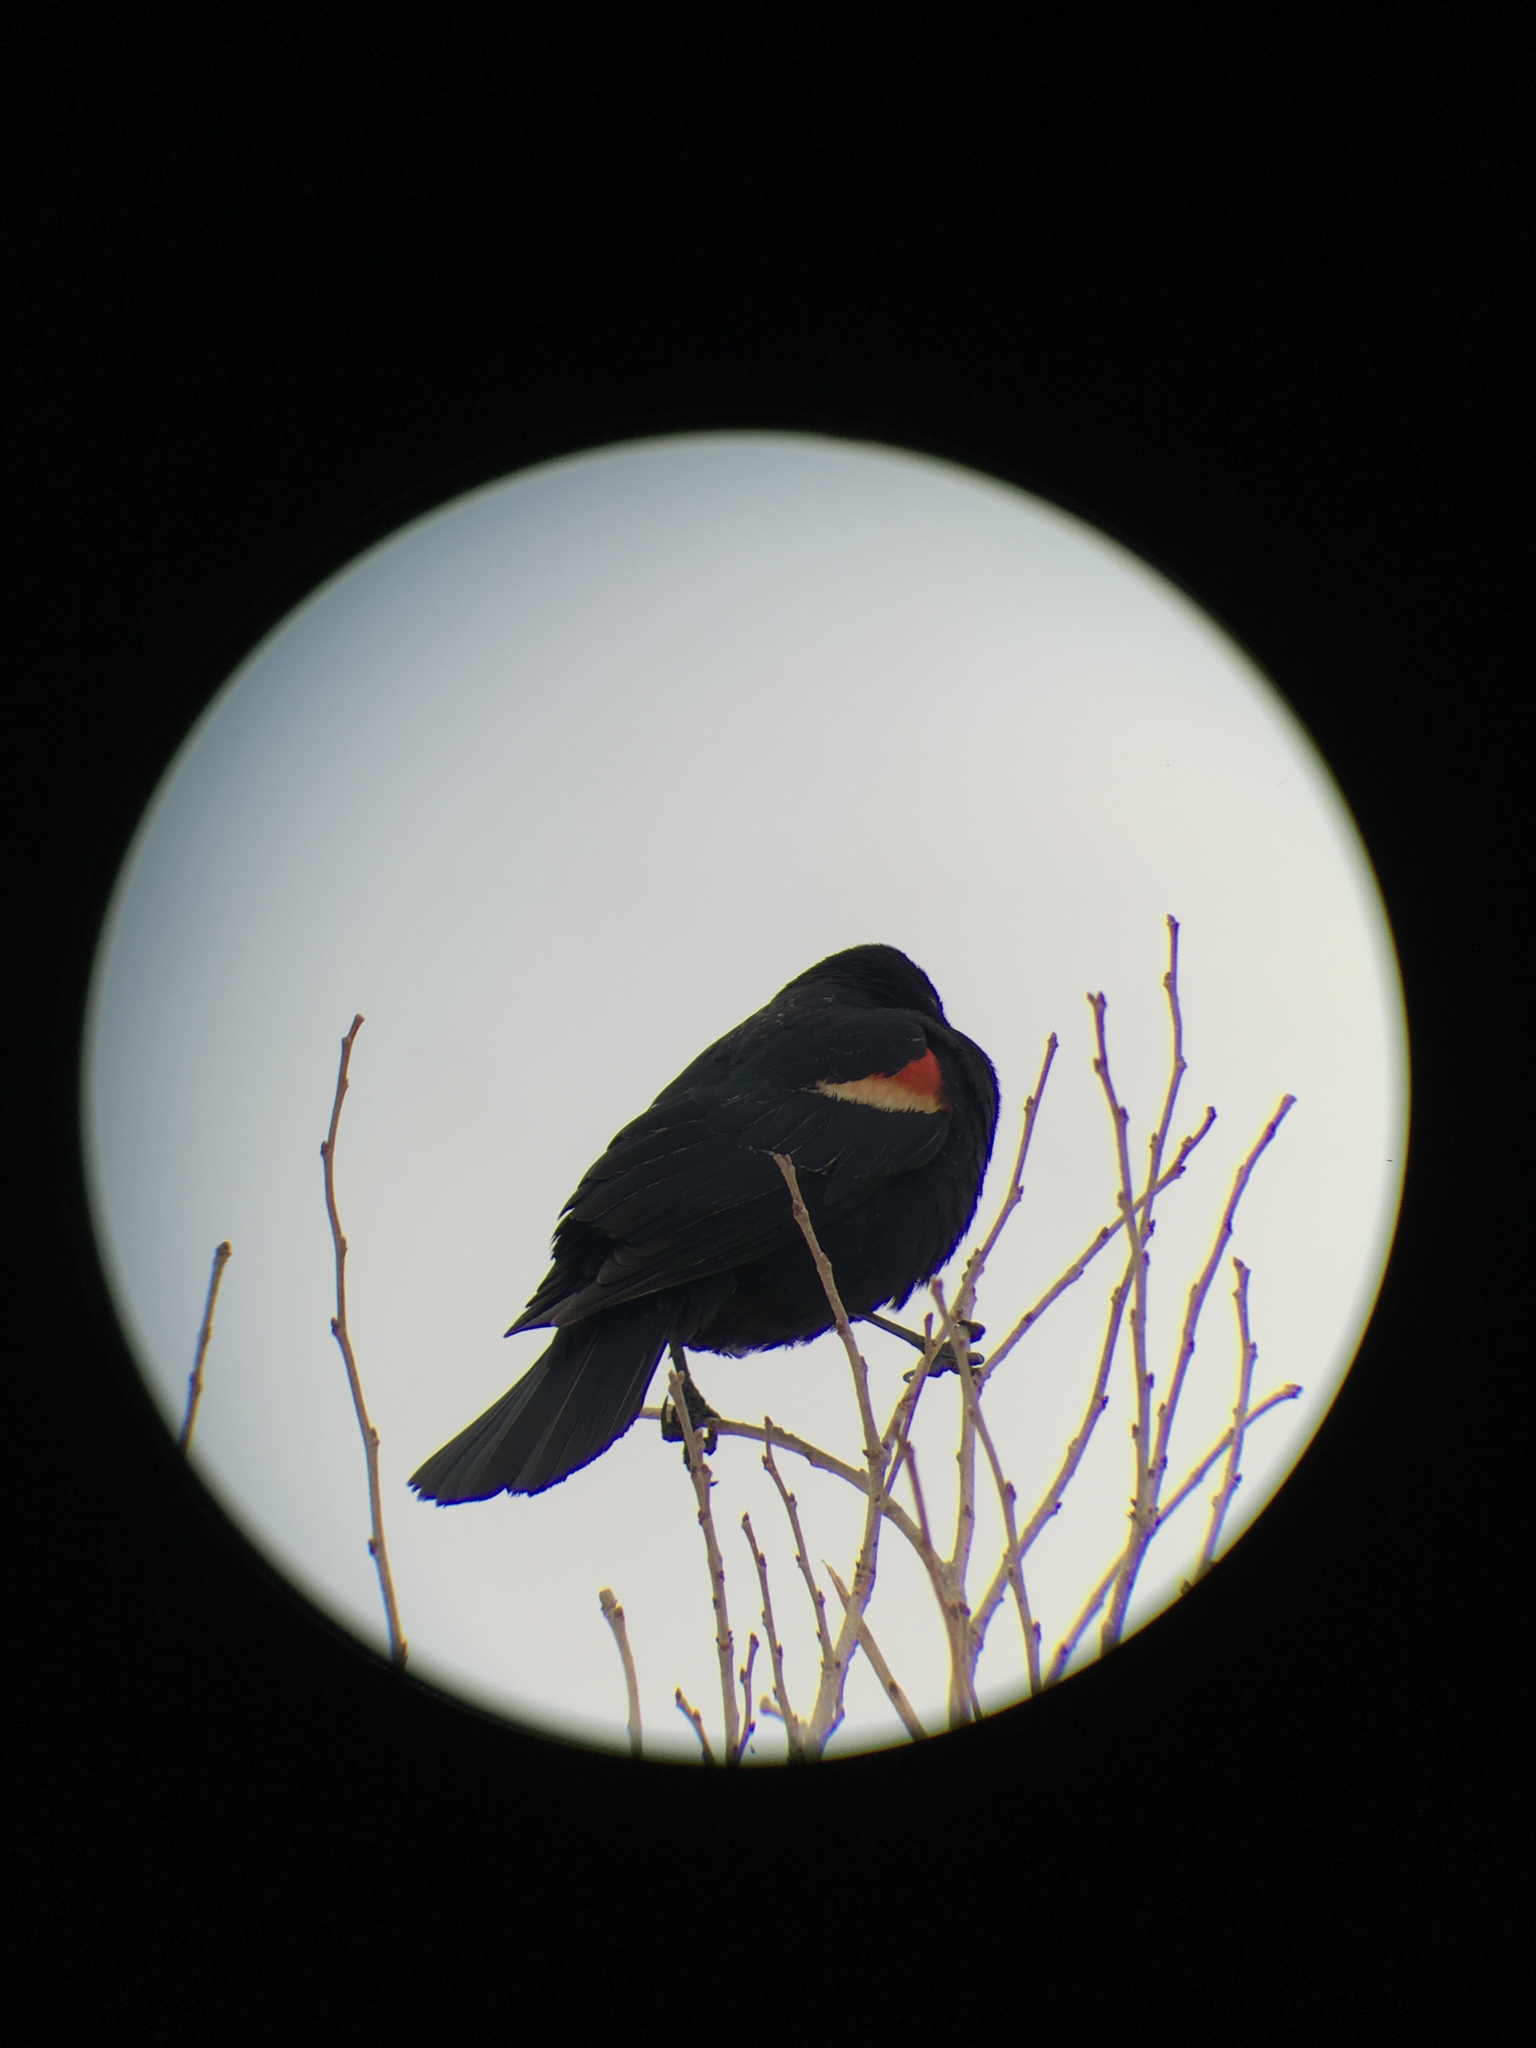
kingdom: Animalia
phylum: Chordata
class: Aves
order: Passeriformes
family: Icteridae
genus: Agelaius
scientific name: Agelaius phoeniceus
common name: Red-winged blackbird
